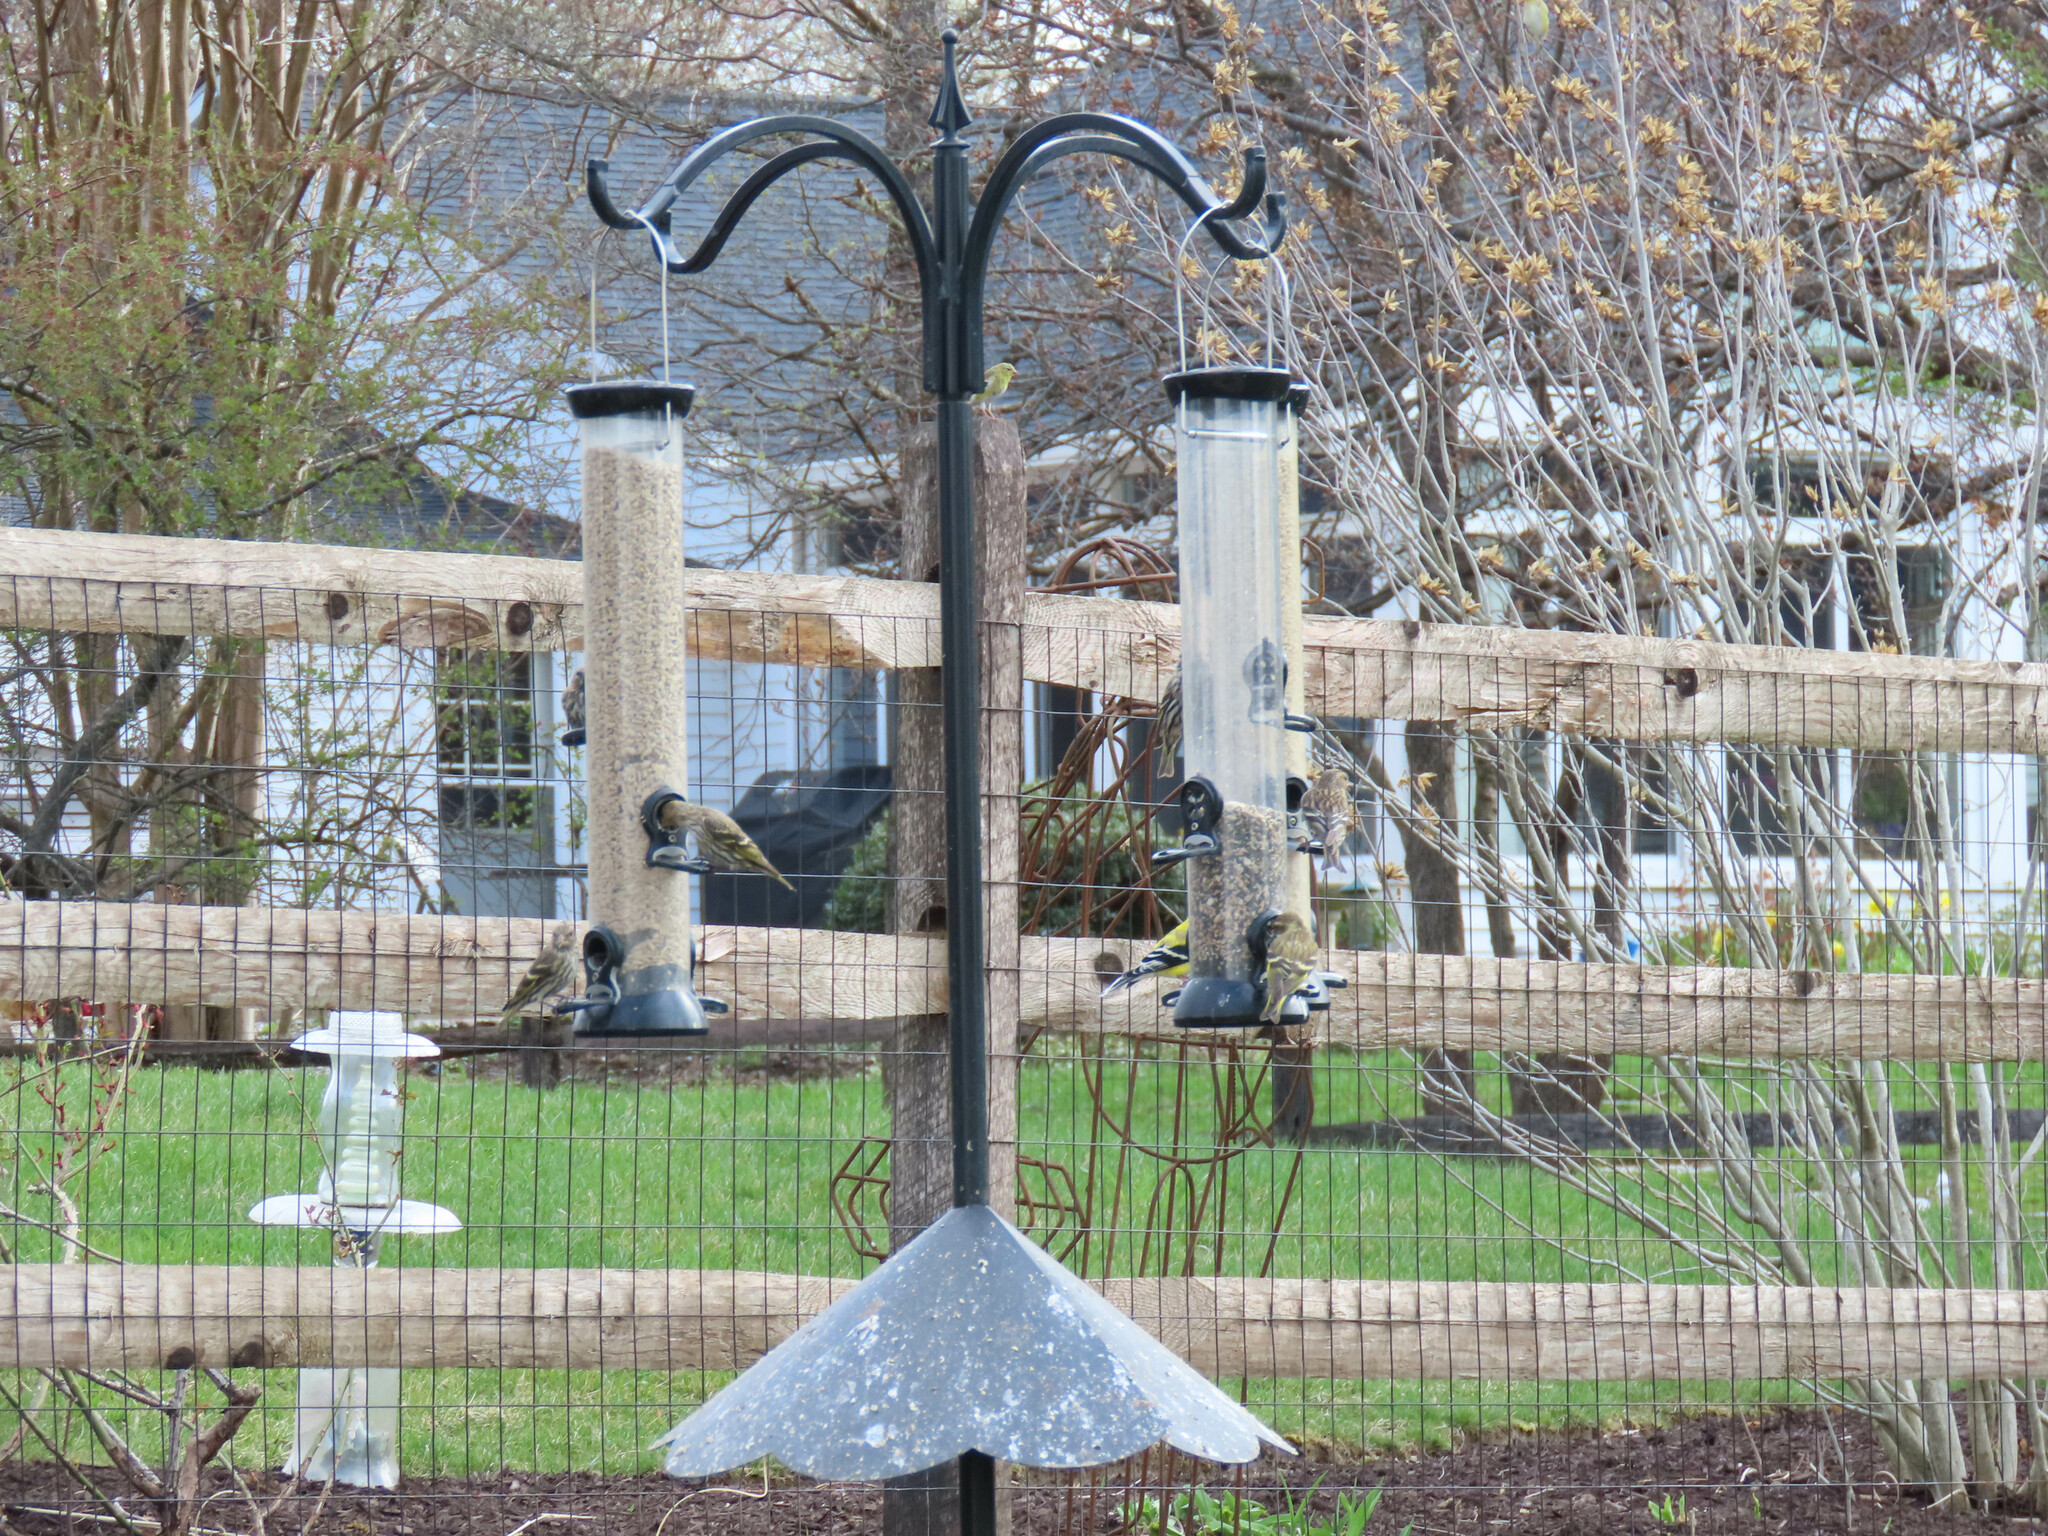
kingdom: Animalia
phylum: Chordata
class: Aves
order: Passeriformes
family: Fringillidae
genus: Loxia
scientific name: Loxia leucoptera
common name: Two-barred crossbill
